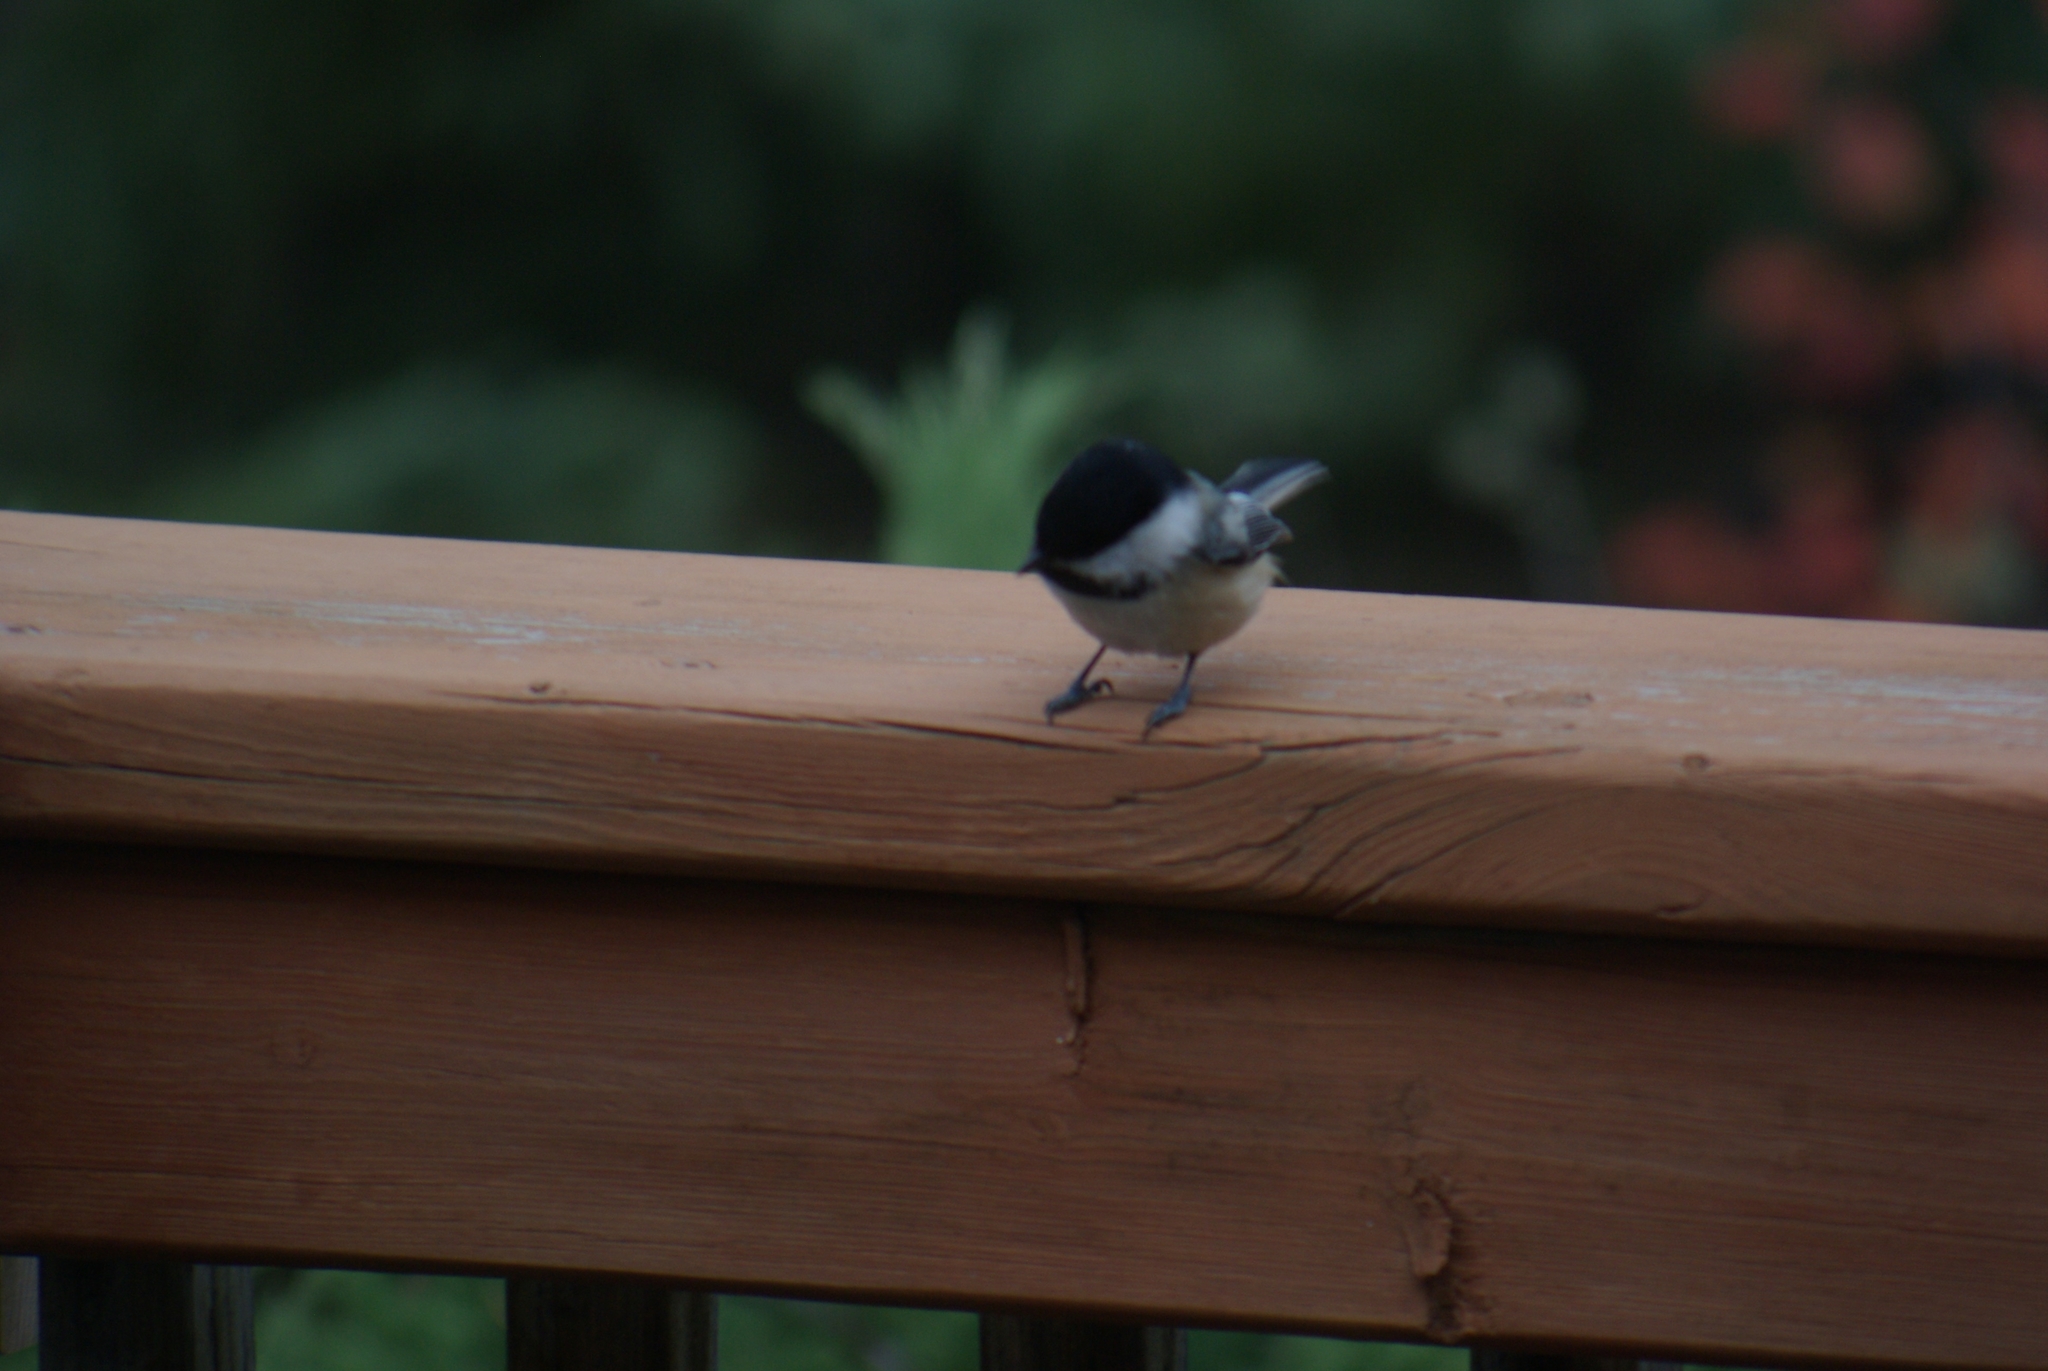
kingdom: Animalia
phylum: Chordata
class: Aves
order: Passeriformes
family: Paridae
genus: Poecile
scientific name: Poecile atricapillus
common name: Black-capped chickadee
